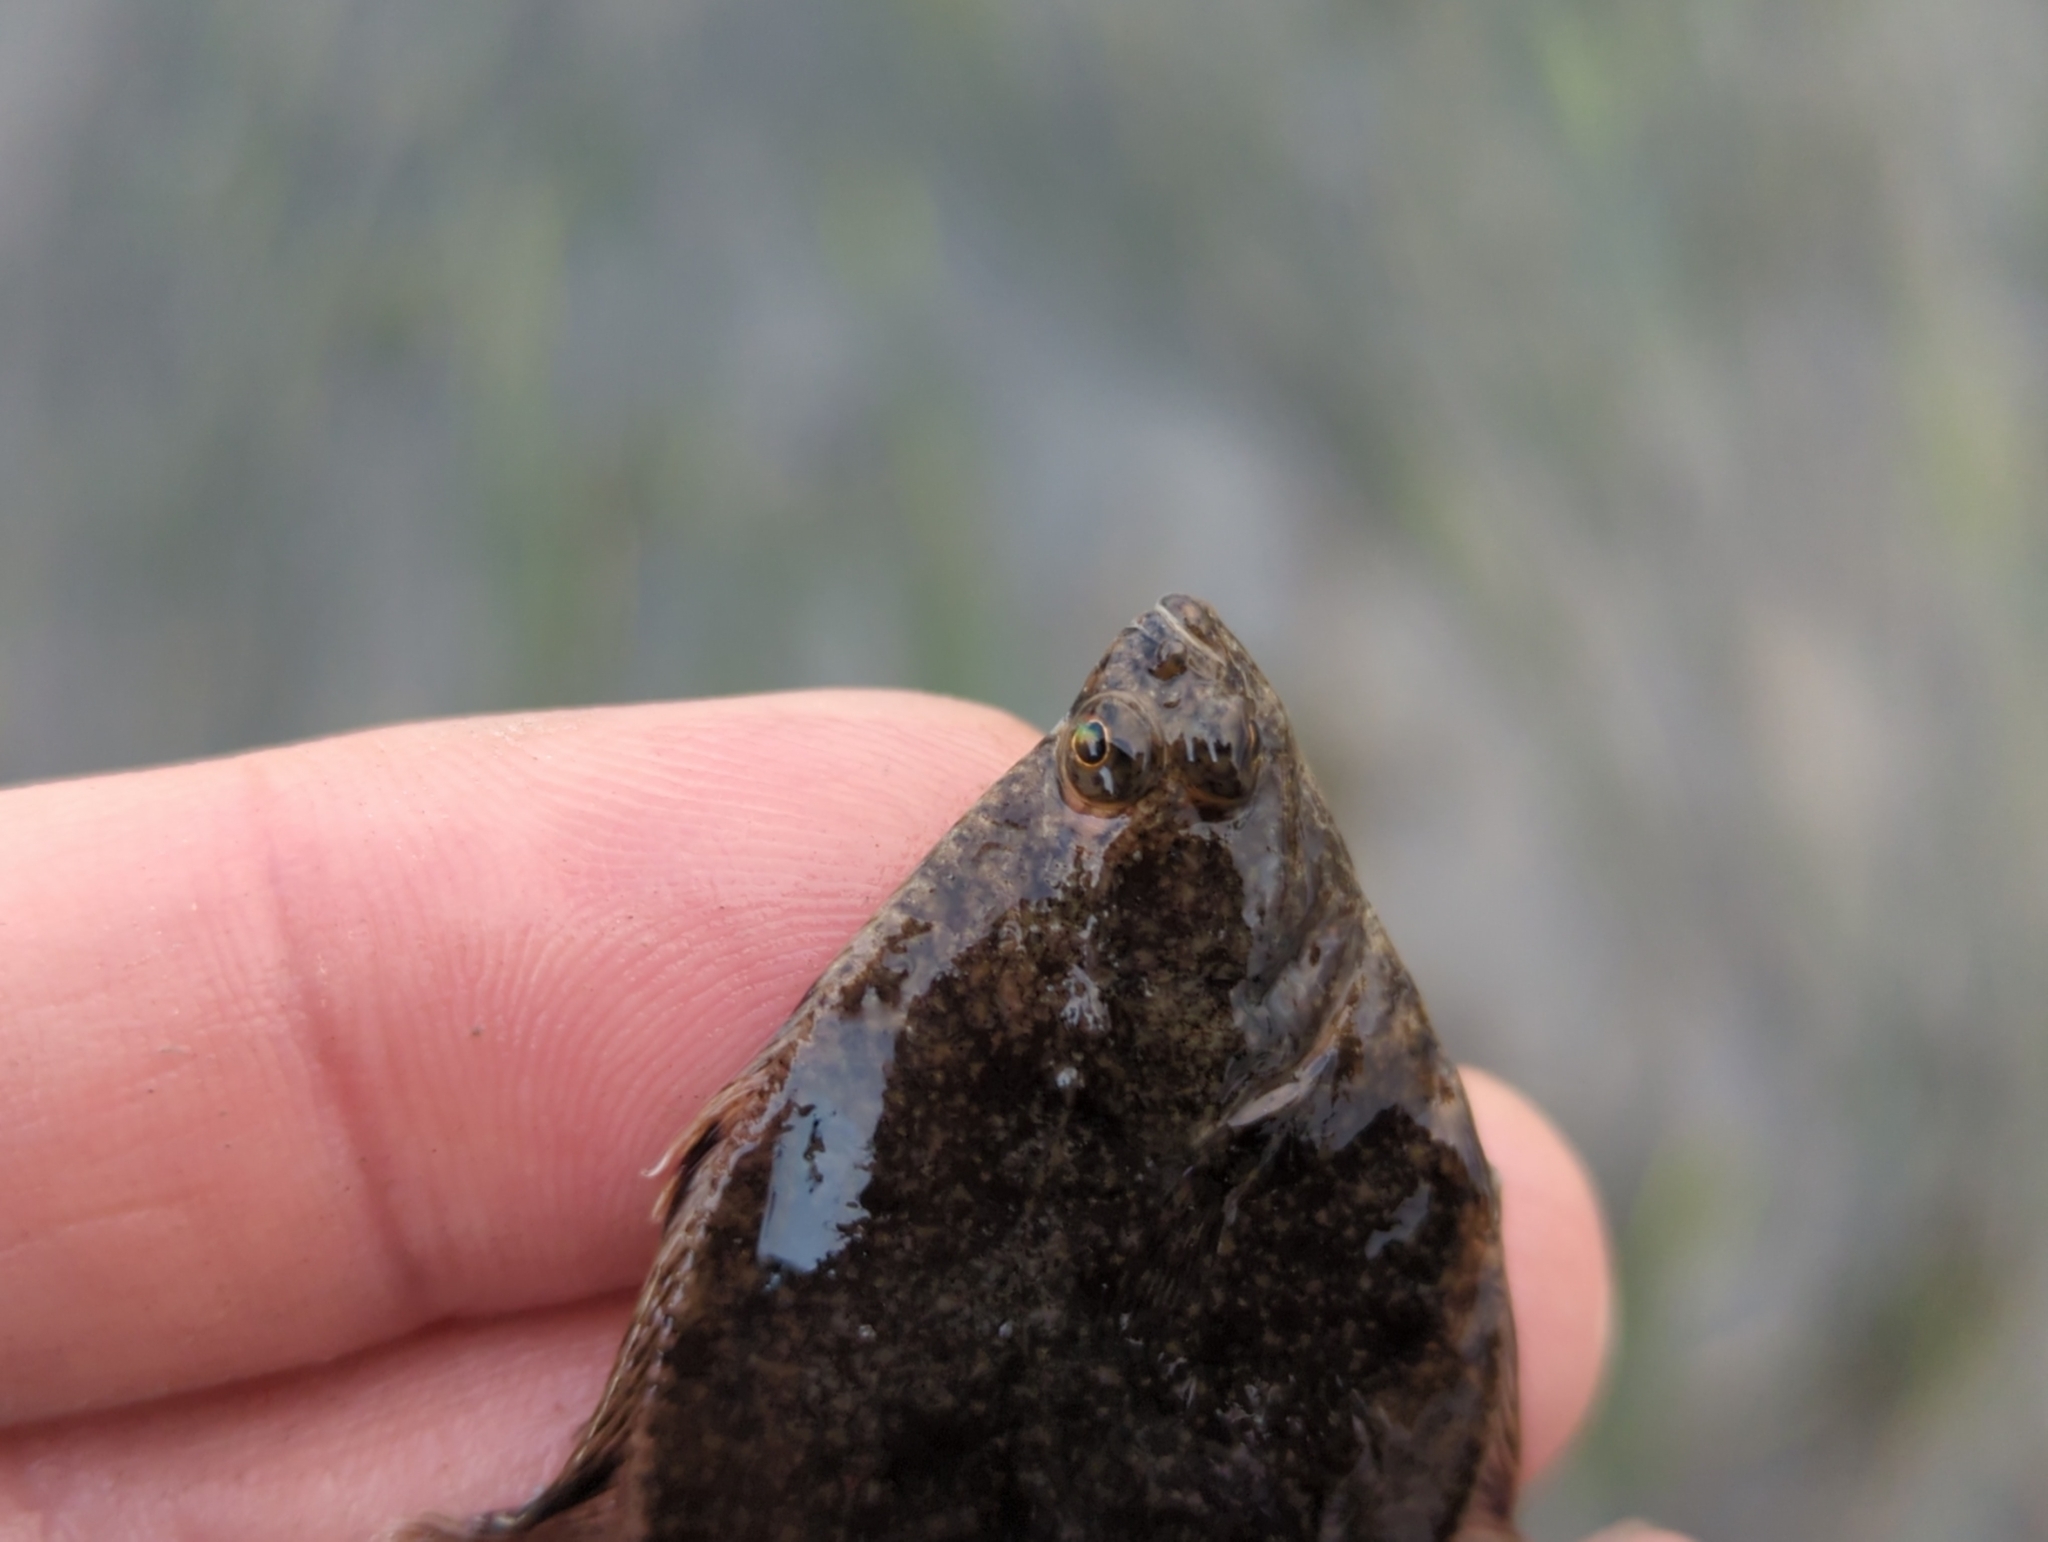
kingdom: Animalia
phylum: Chordata
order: Pleuronectiformes
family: Pleuronectidae
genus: Platichthys
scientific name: Platichthys stellatus
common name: Starry flounder
